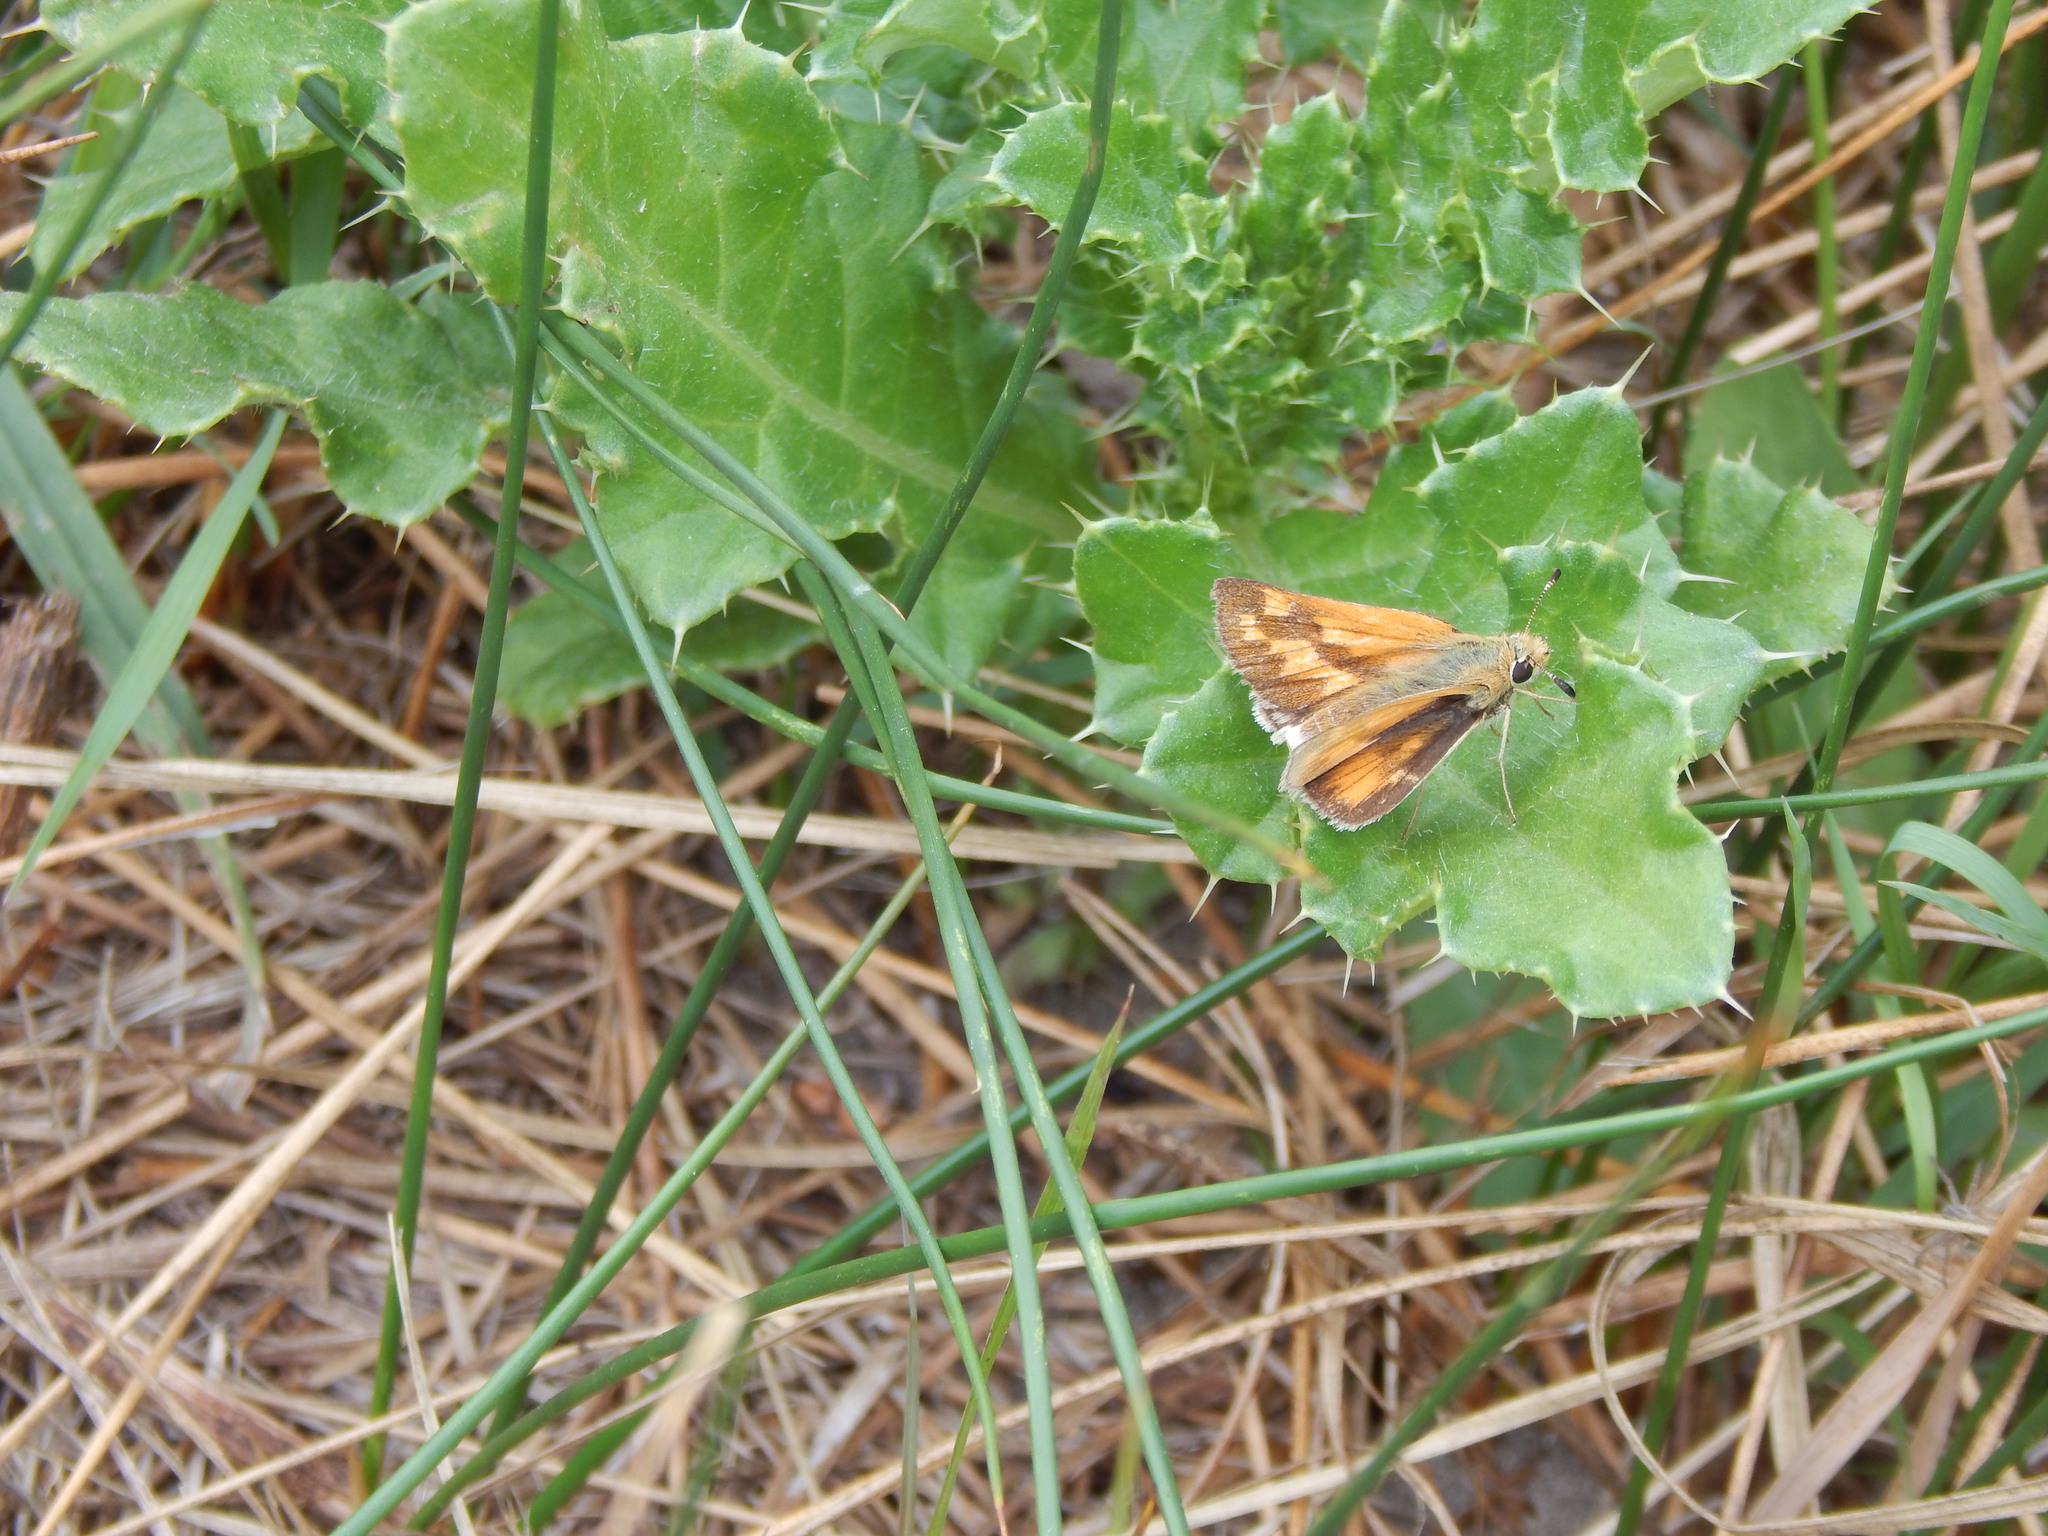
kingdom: Animalia
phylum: Arthropoda
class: Insecta
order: Lepidoptera
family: Hesperiidae
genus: Ochlodes
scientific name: Ochlodes sylvanoides
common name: Woodland skipper
